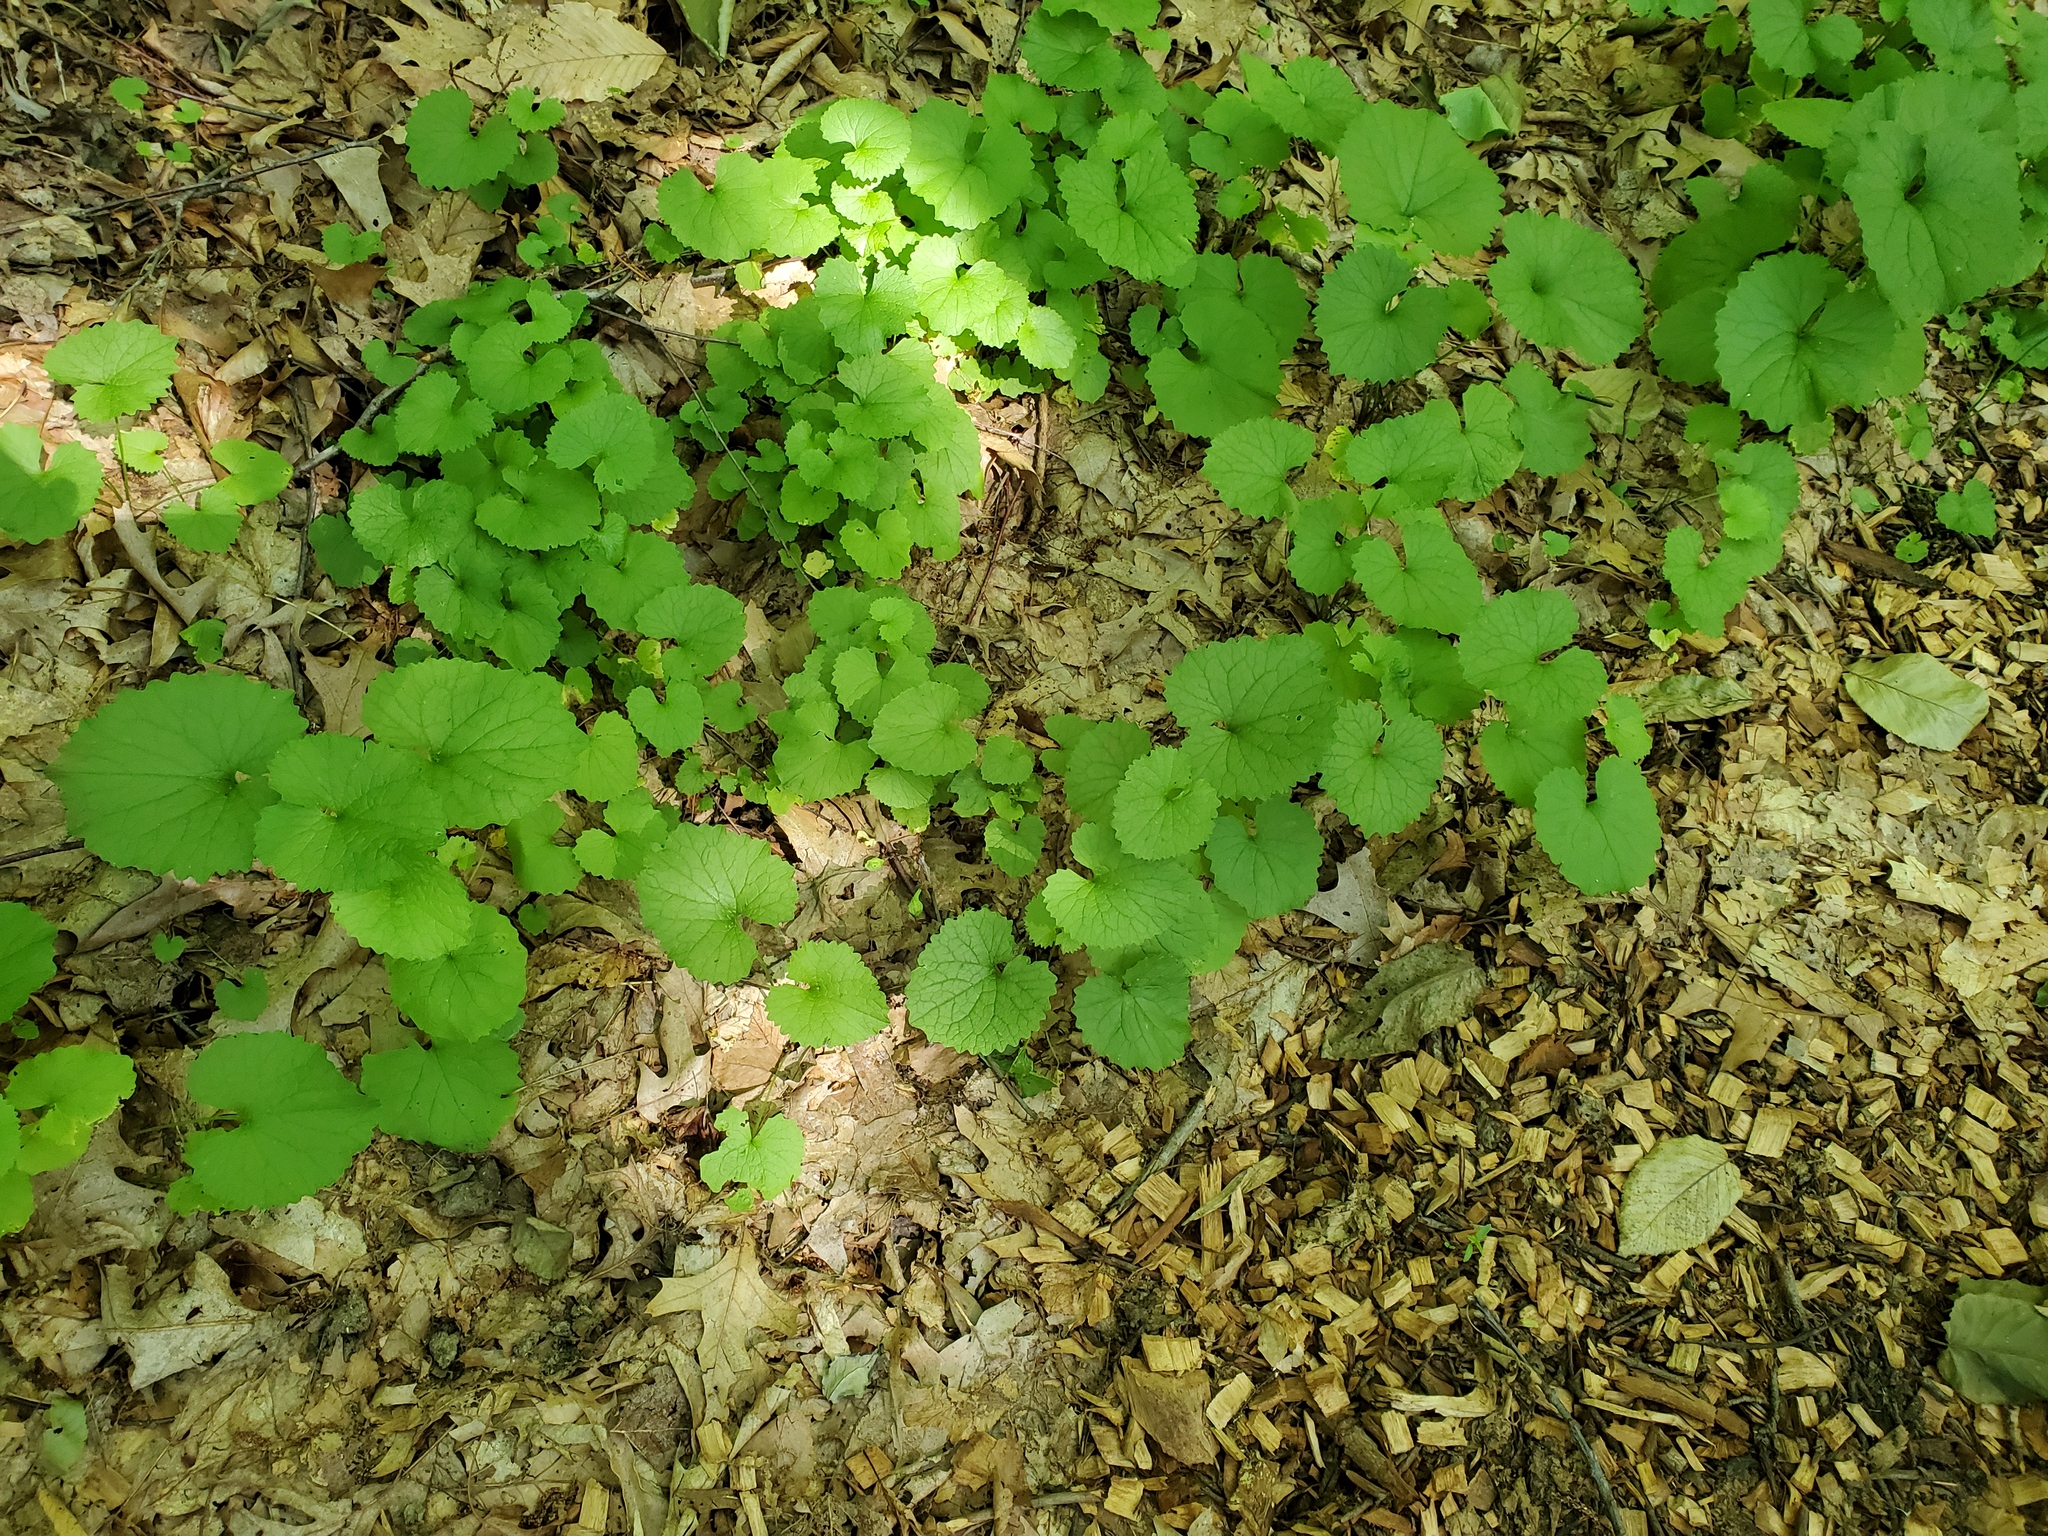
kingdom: Plantae
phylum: Tracheophyta
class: Magnoliopsida
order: Brassicales
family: Brassicaceae
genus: Alliaria
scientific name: Alliaria petiolata
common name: Garlic mustard
